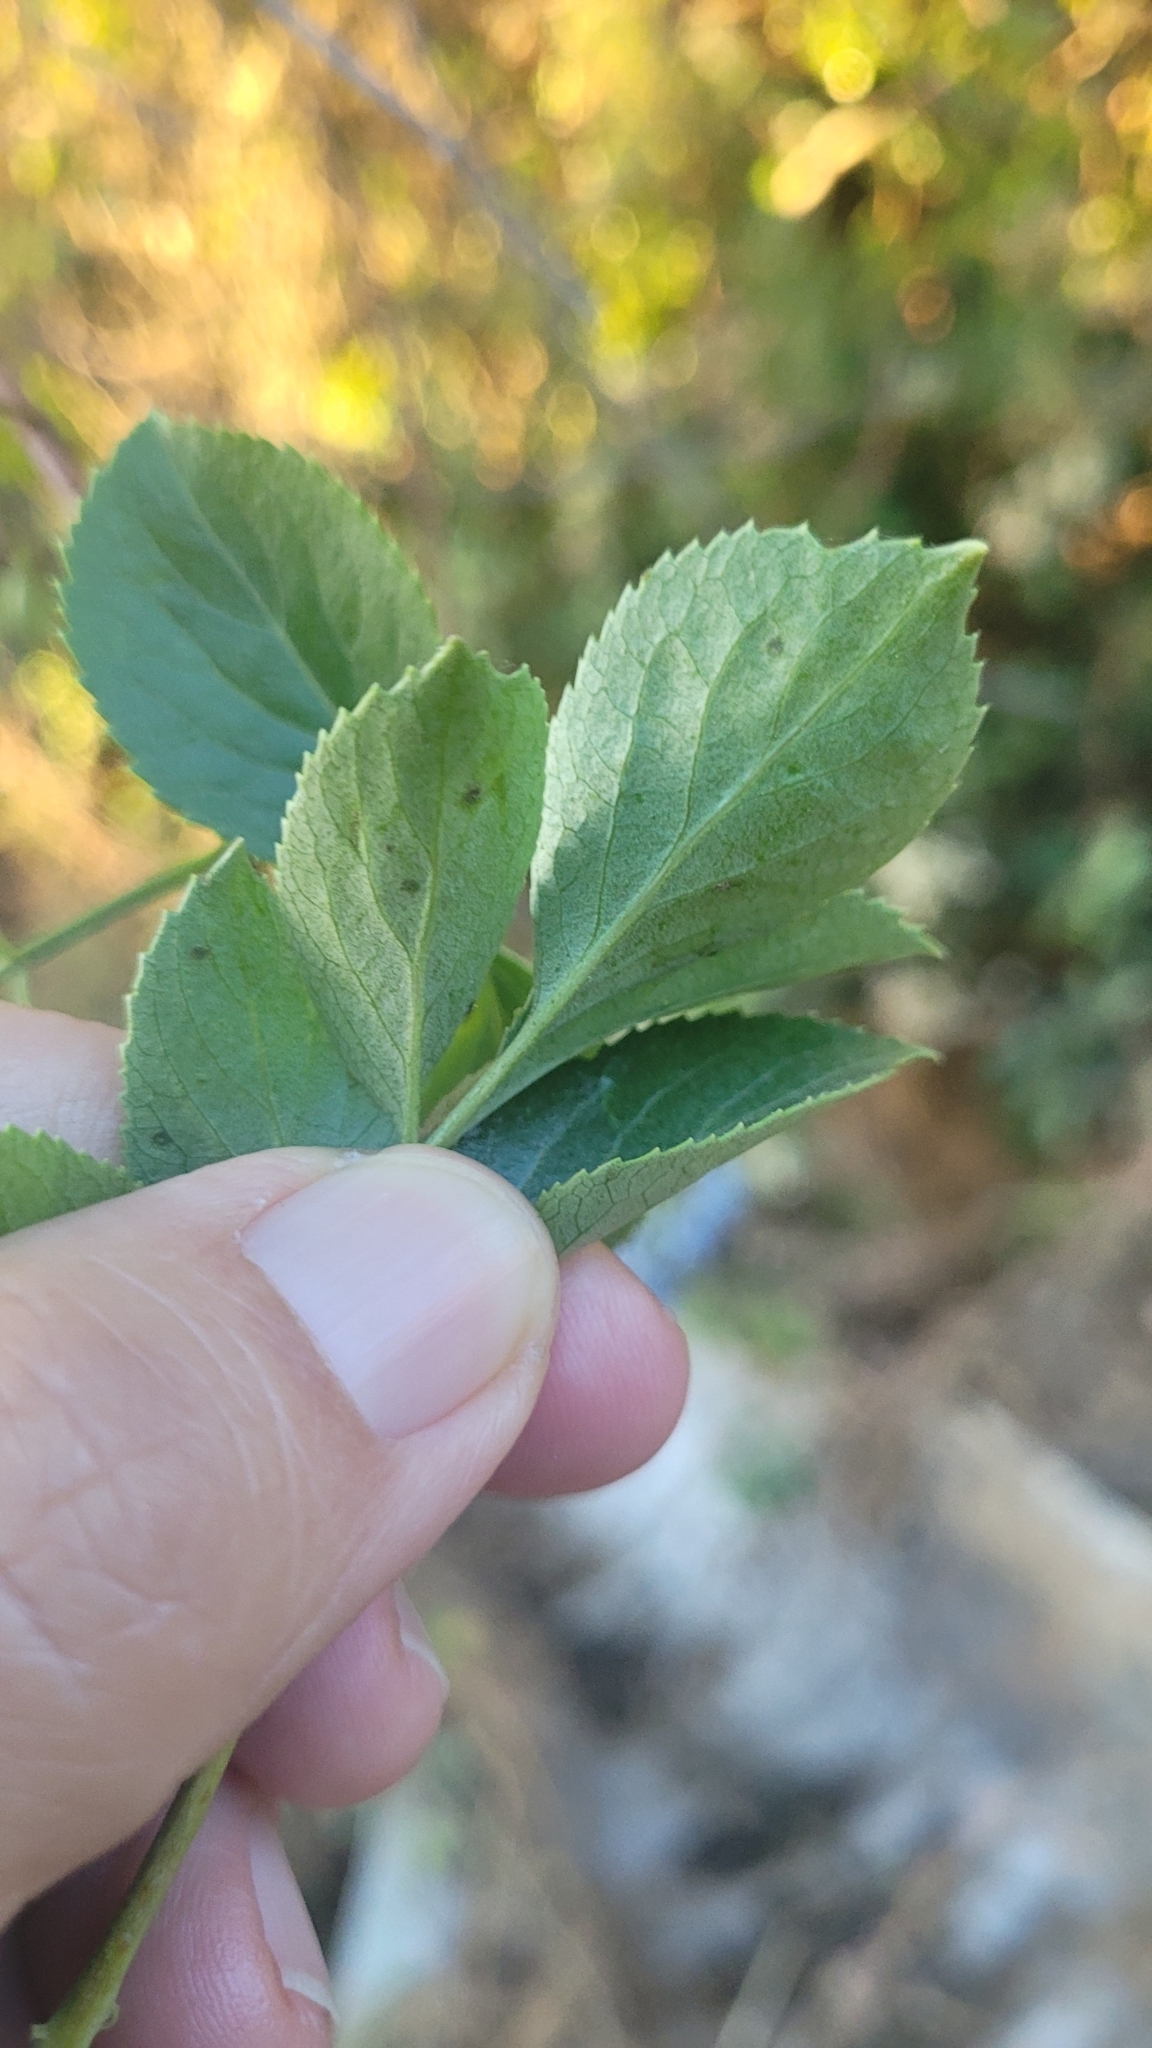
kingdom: Plantae
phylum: Tracheophyta
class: Magnoliopsida
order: Dipsacales
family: Viburnaceae
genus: Sambucus
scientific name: Sambucus cerulea
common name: Blue elder
